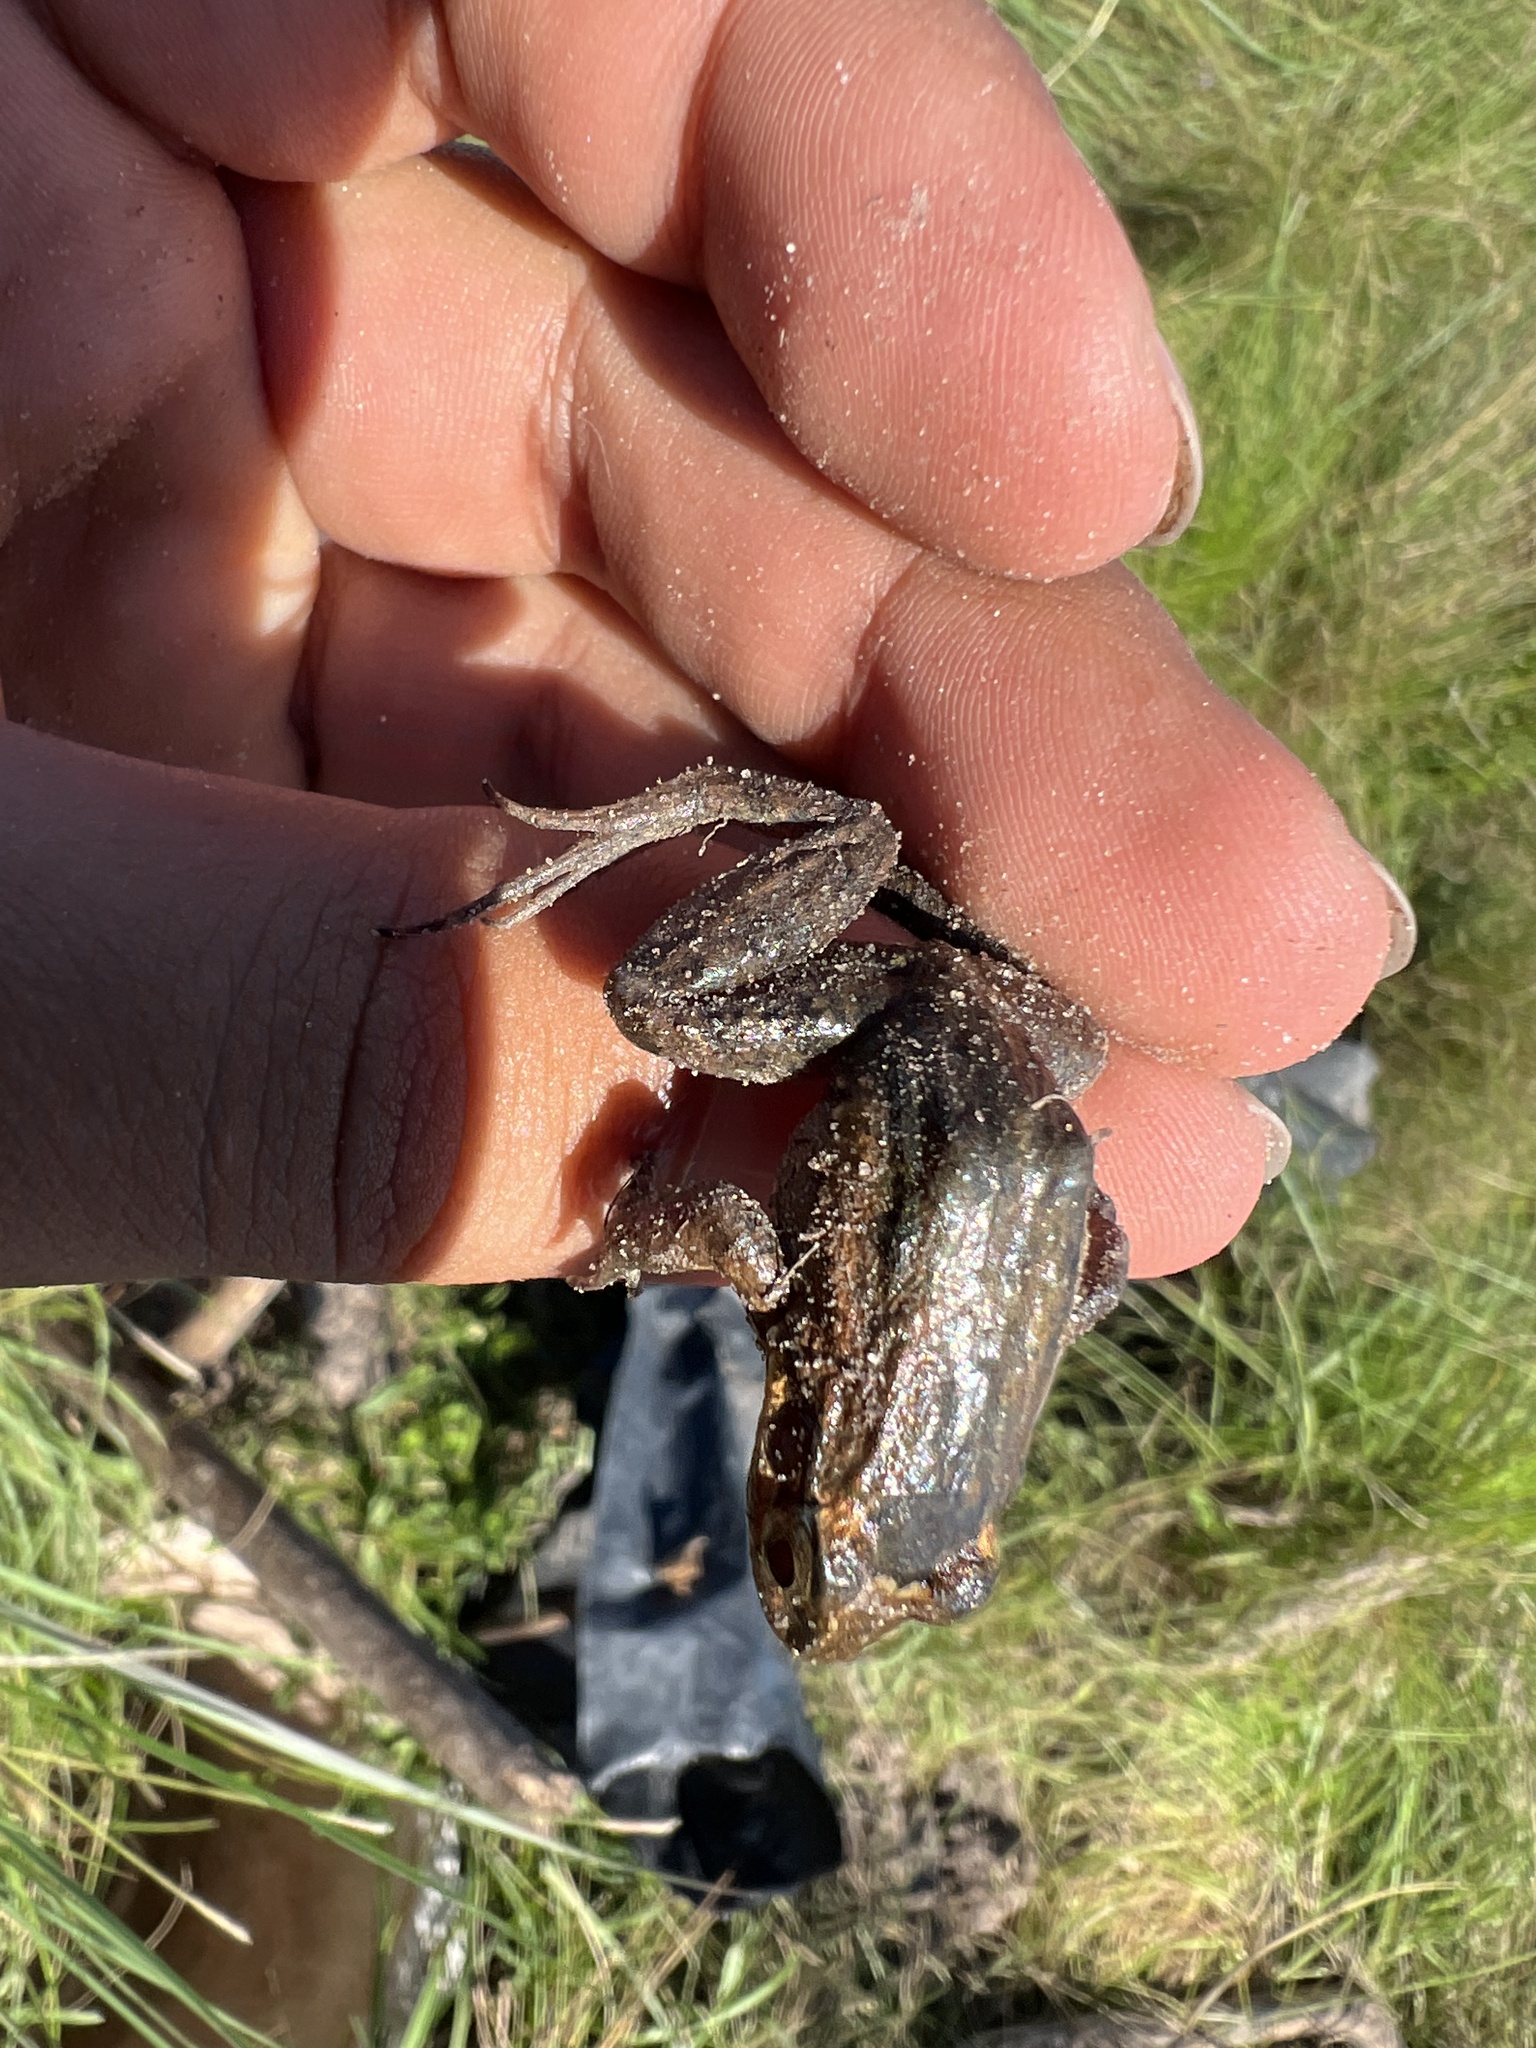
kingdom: Animalia
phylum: Chordata
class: Amphibia
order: Anura
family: Leptodactylidae
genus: Leptodactylus
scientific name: Leptodactylus podicipinus
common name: Pointedbelly frog
